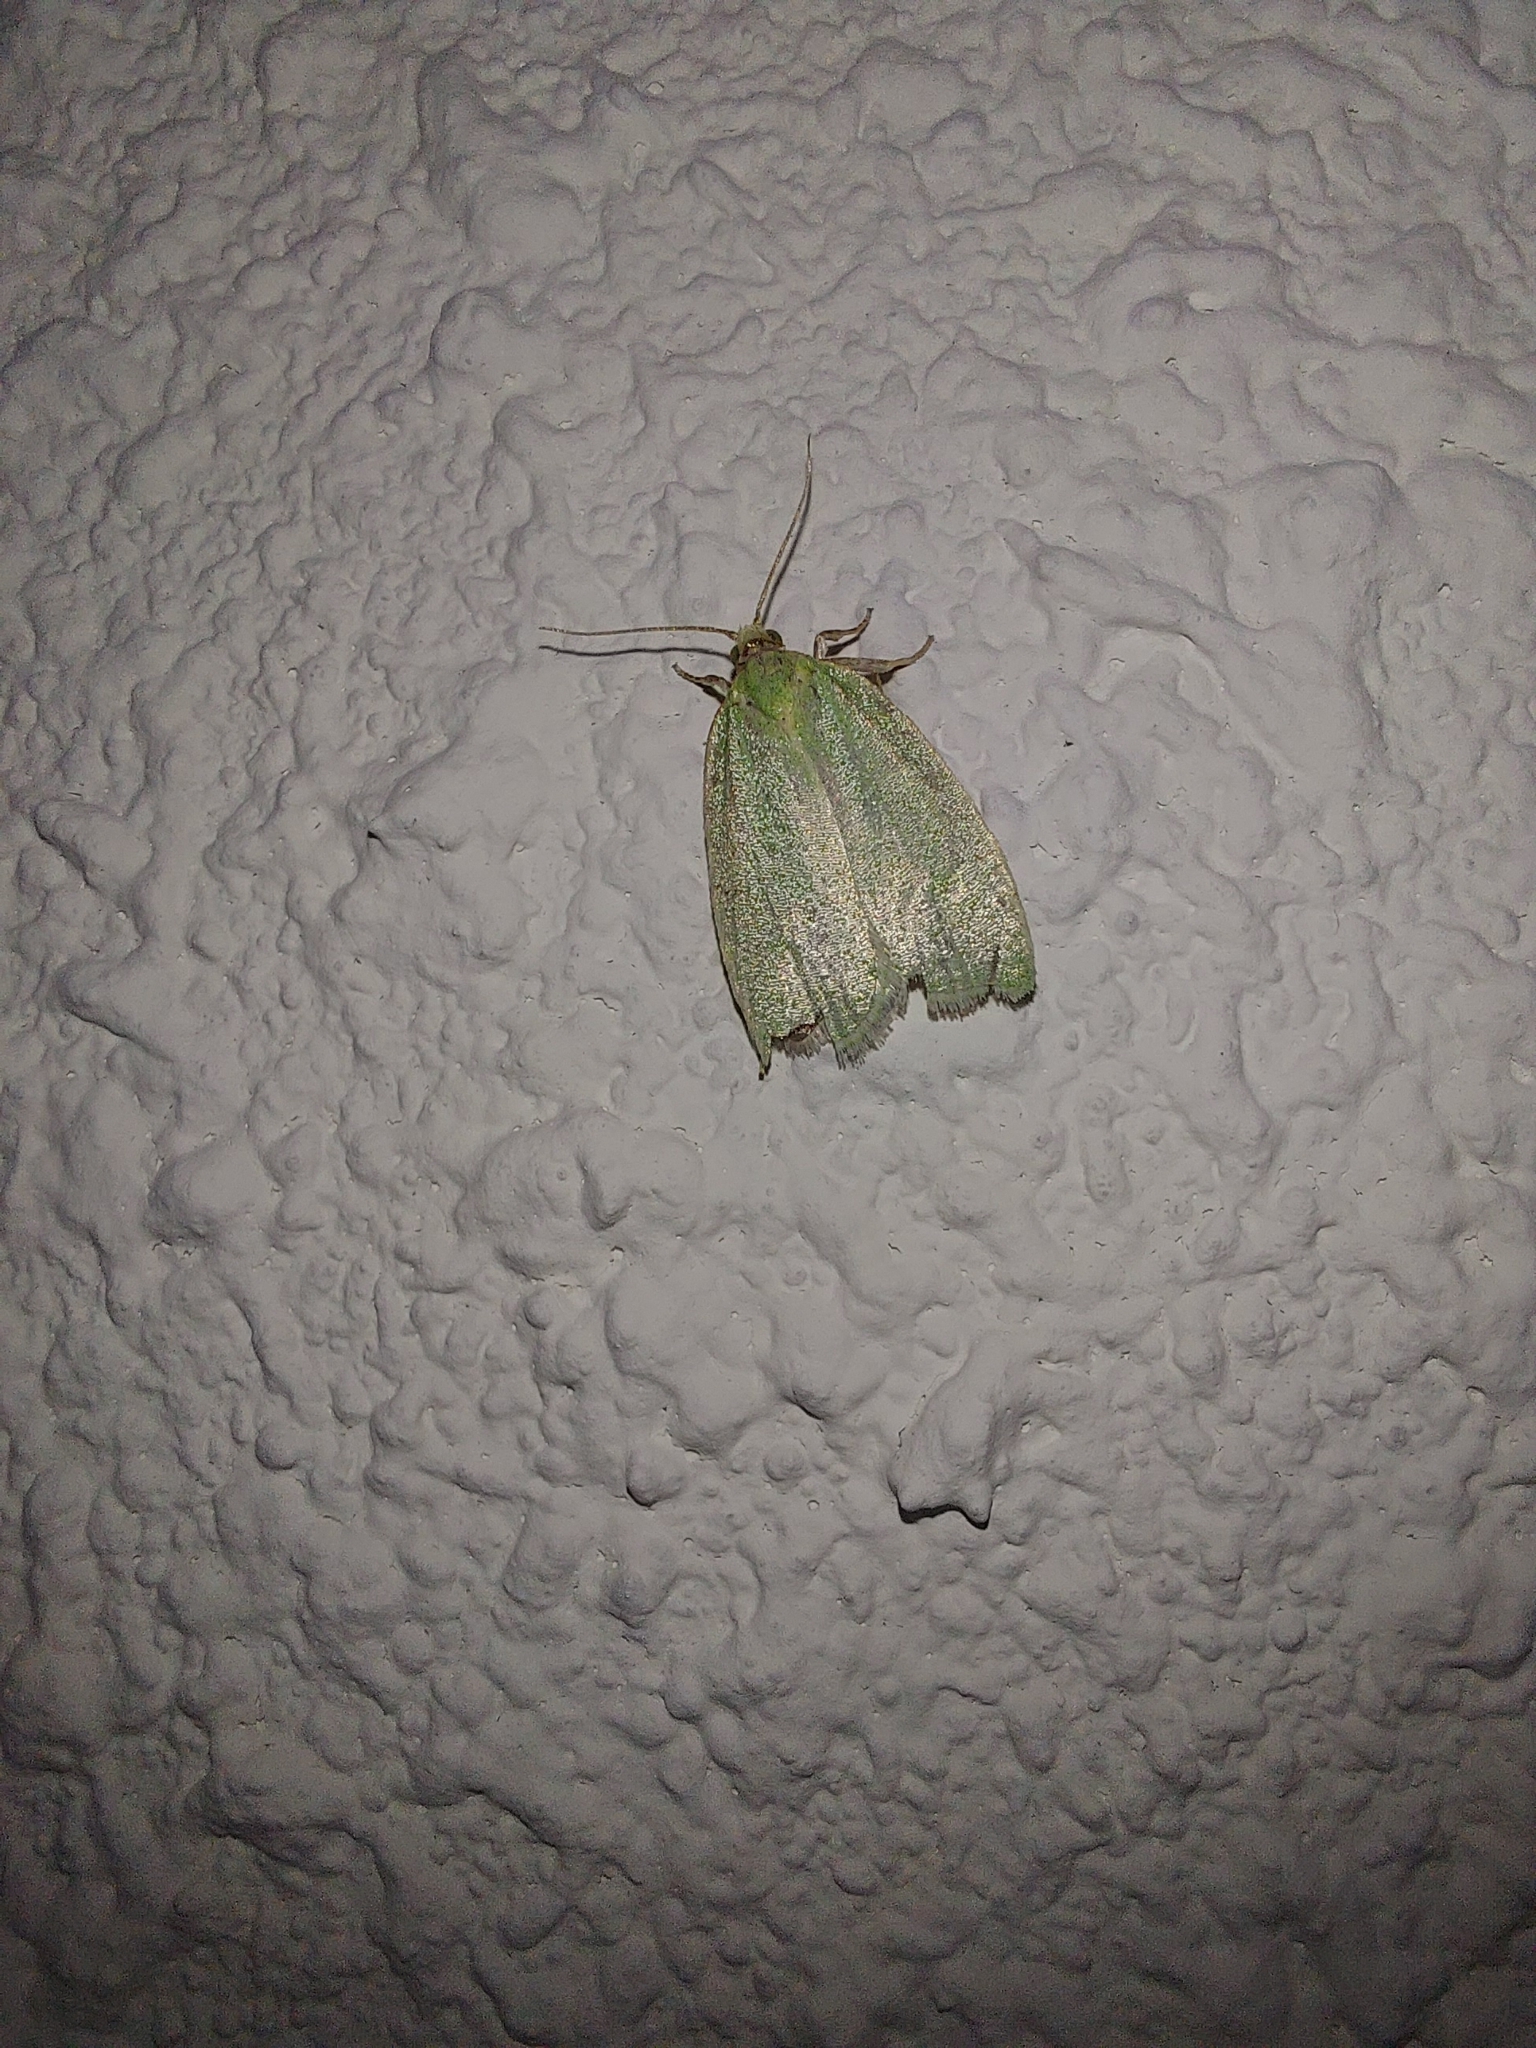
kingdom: Animalia
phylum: Arthropoda
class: Insecta
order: Lepidoptera
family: Tortricidae
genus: Tortrix
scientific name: Tortrix viridana
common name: Green oak tortrix
